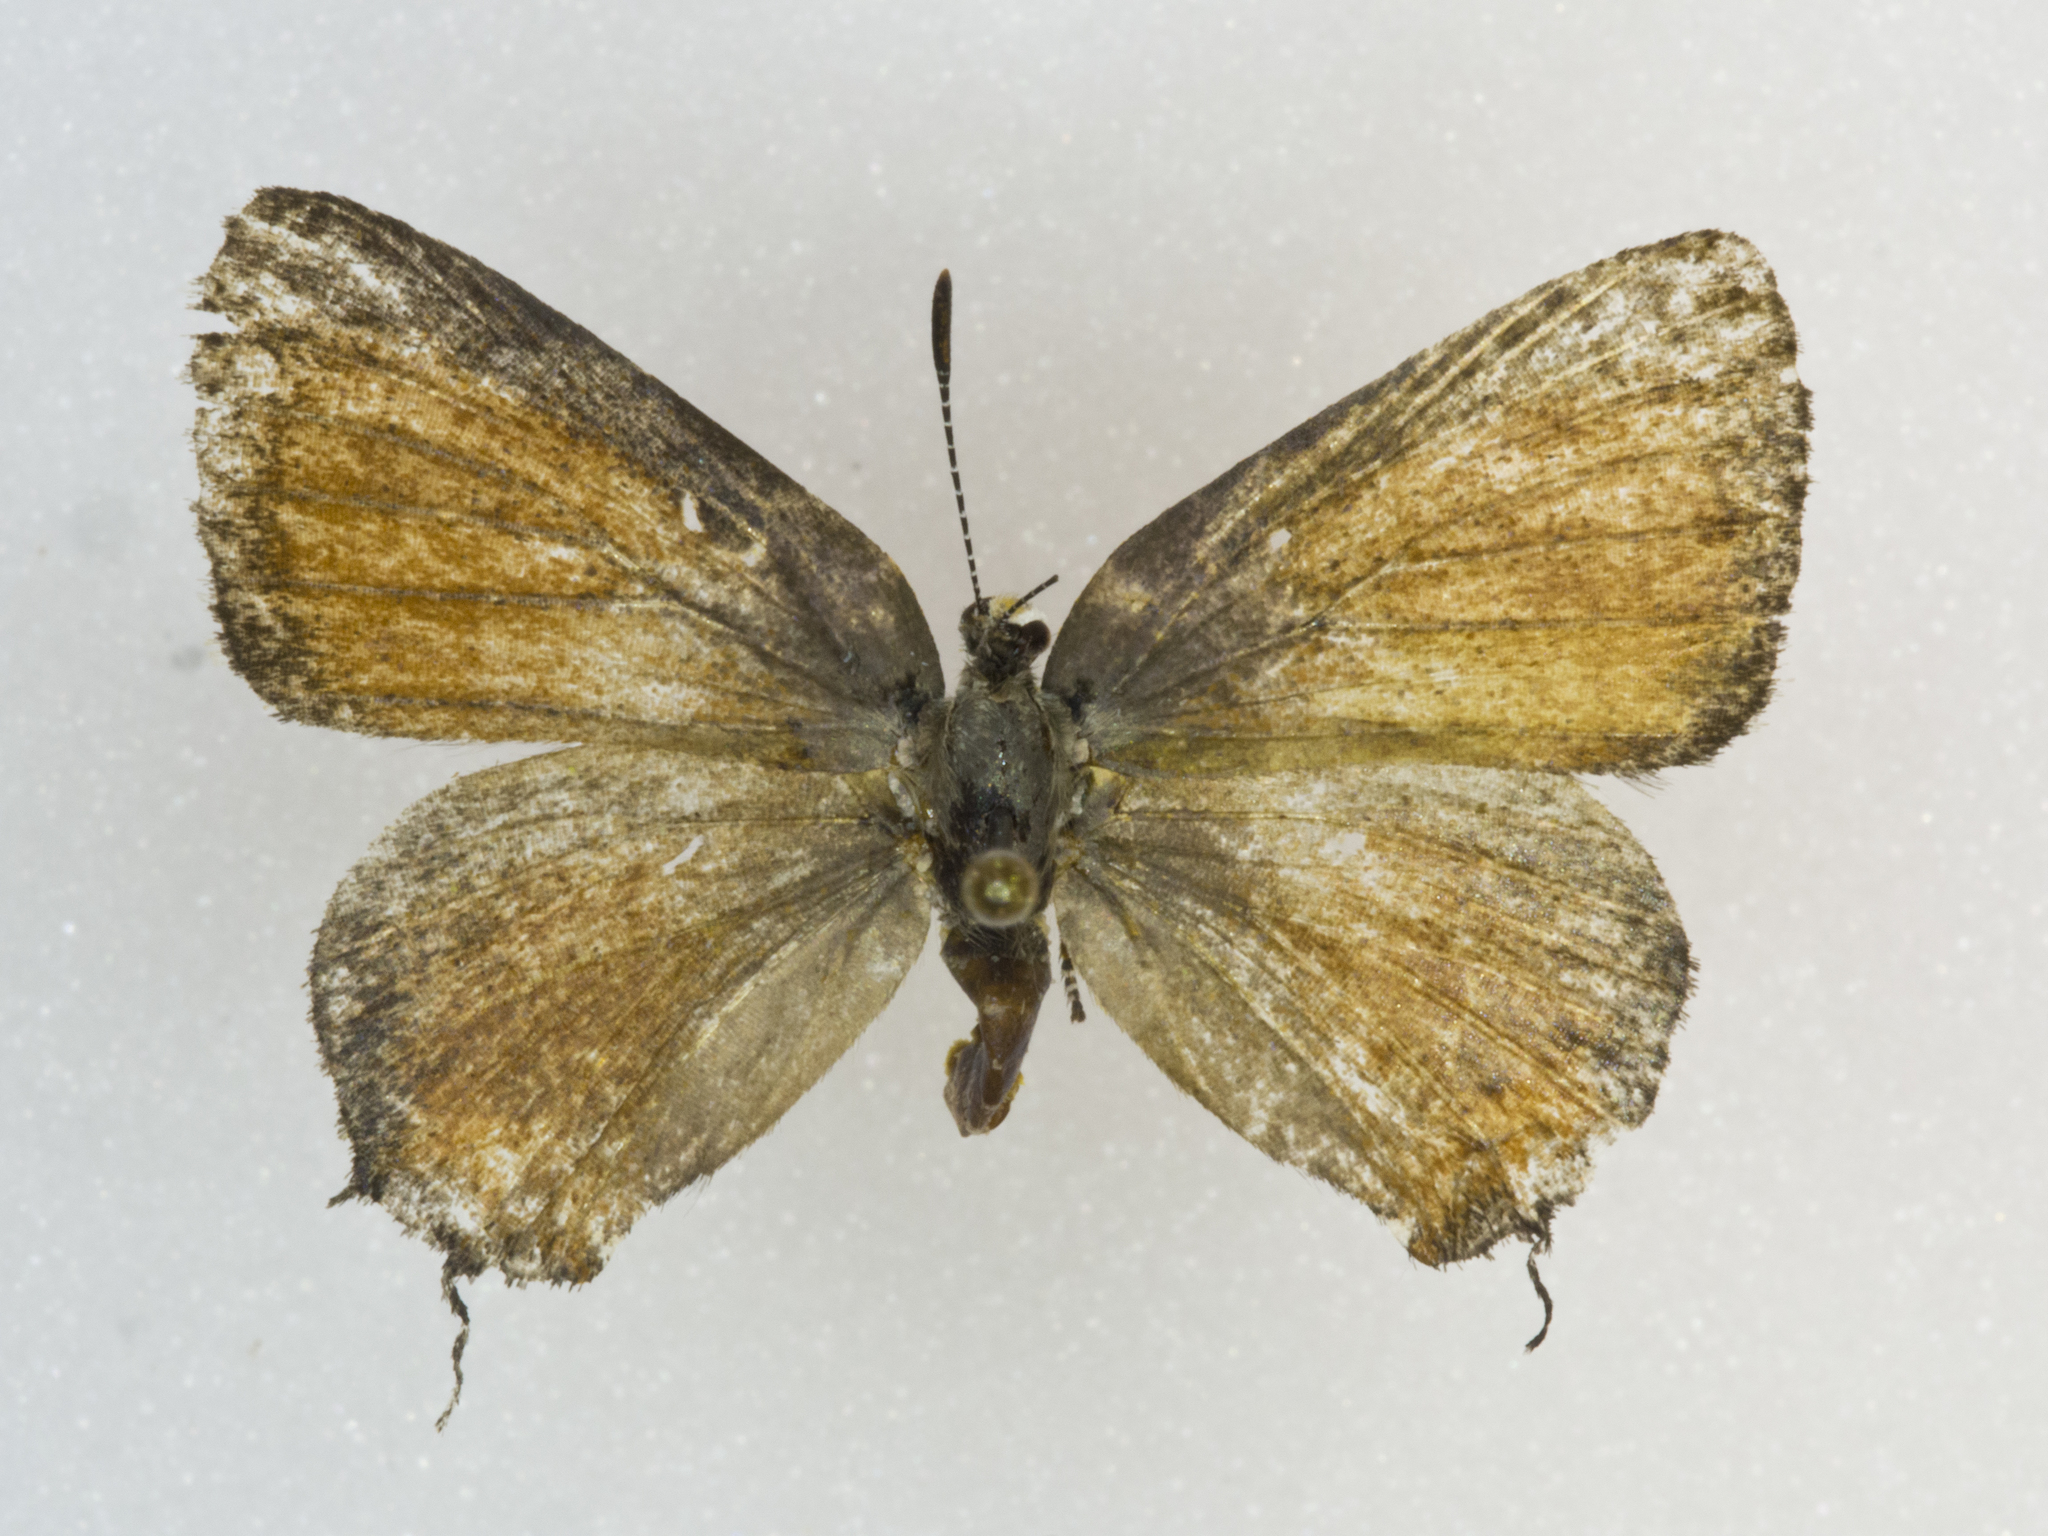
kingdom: Animalia
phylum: Arthropoda
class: Insecta
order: Lepidoptera
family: Lycaenidae
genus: Mitoura
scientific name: Mitoura siva
